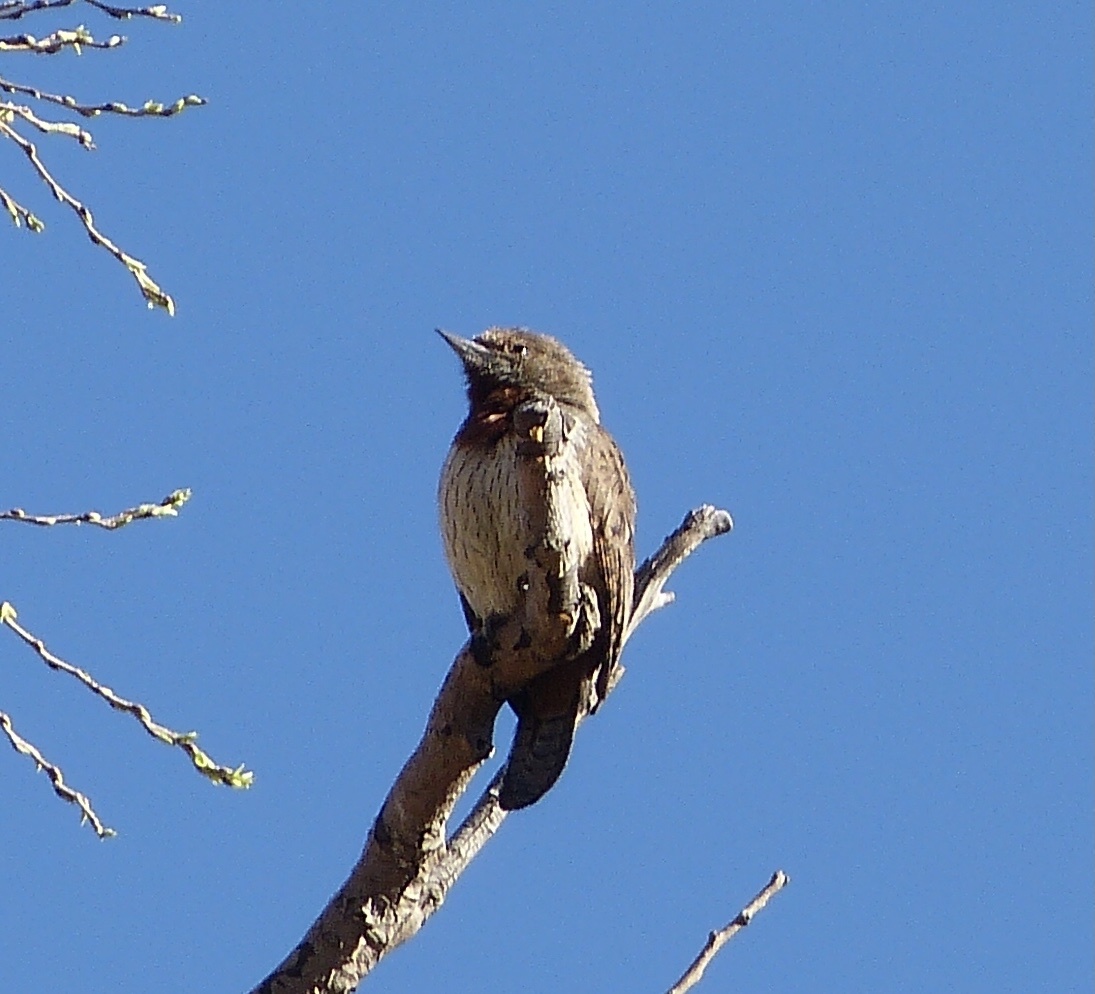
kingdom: Animalia
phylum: Chordata
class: Aves
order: Piciformes
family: Picidae
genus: Jynx
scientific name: Jynx ruficollis
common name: Red-throated wryneck
